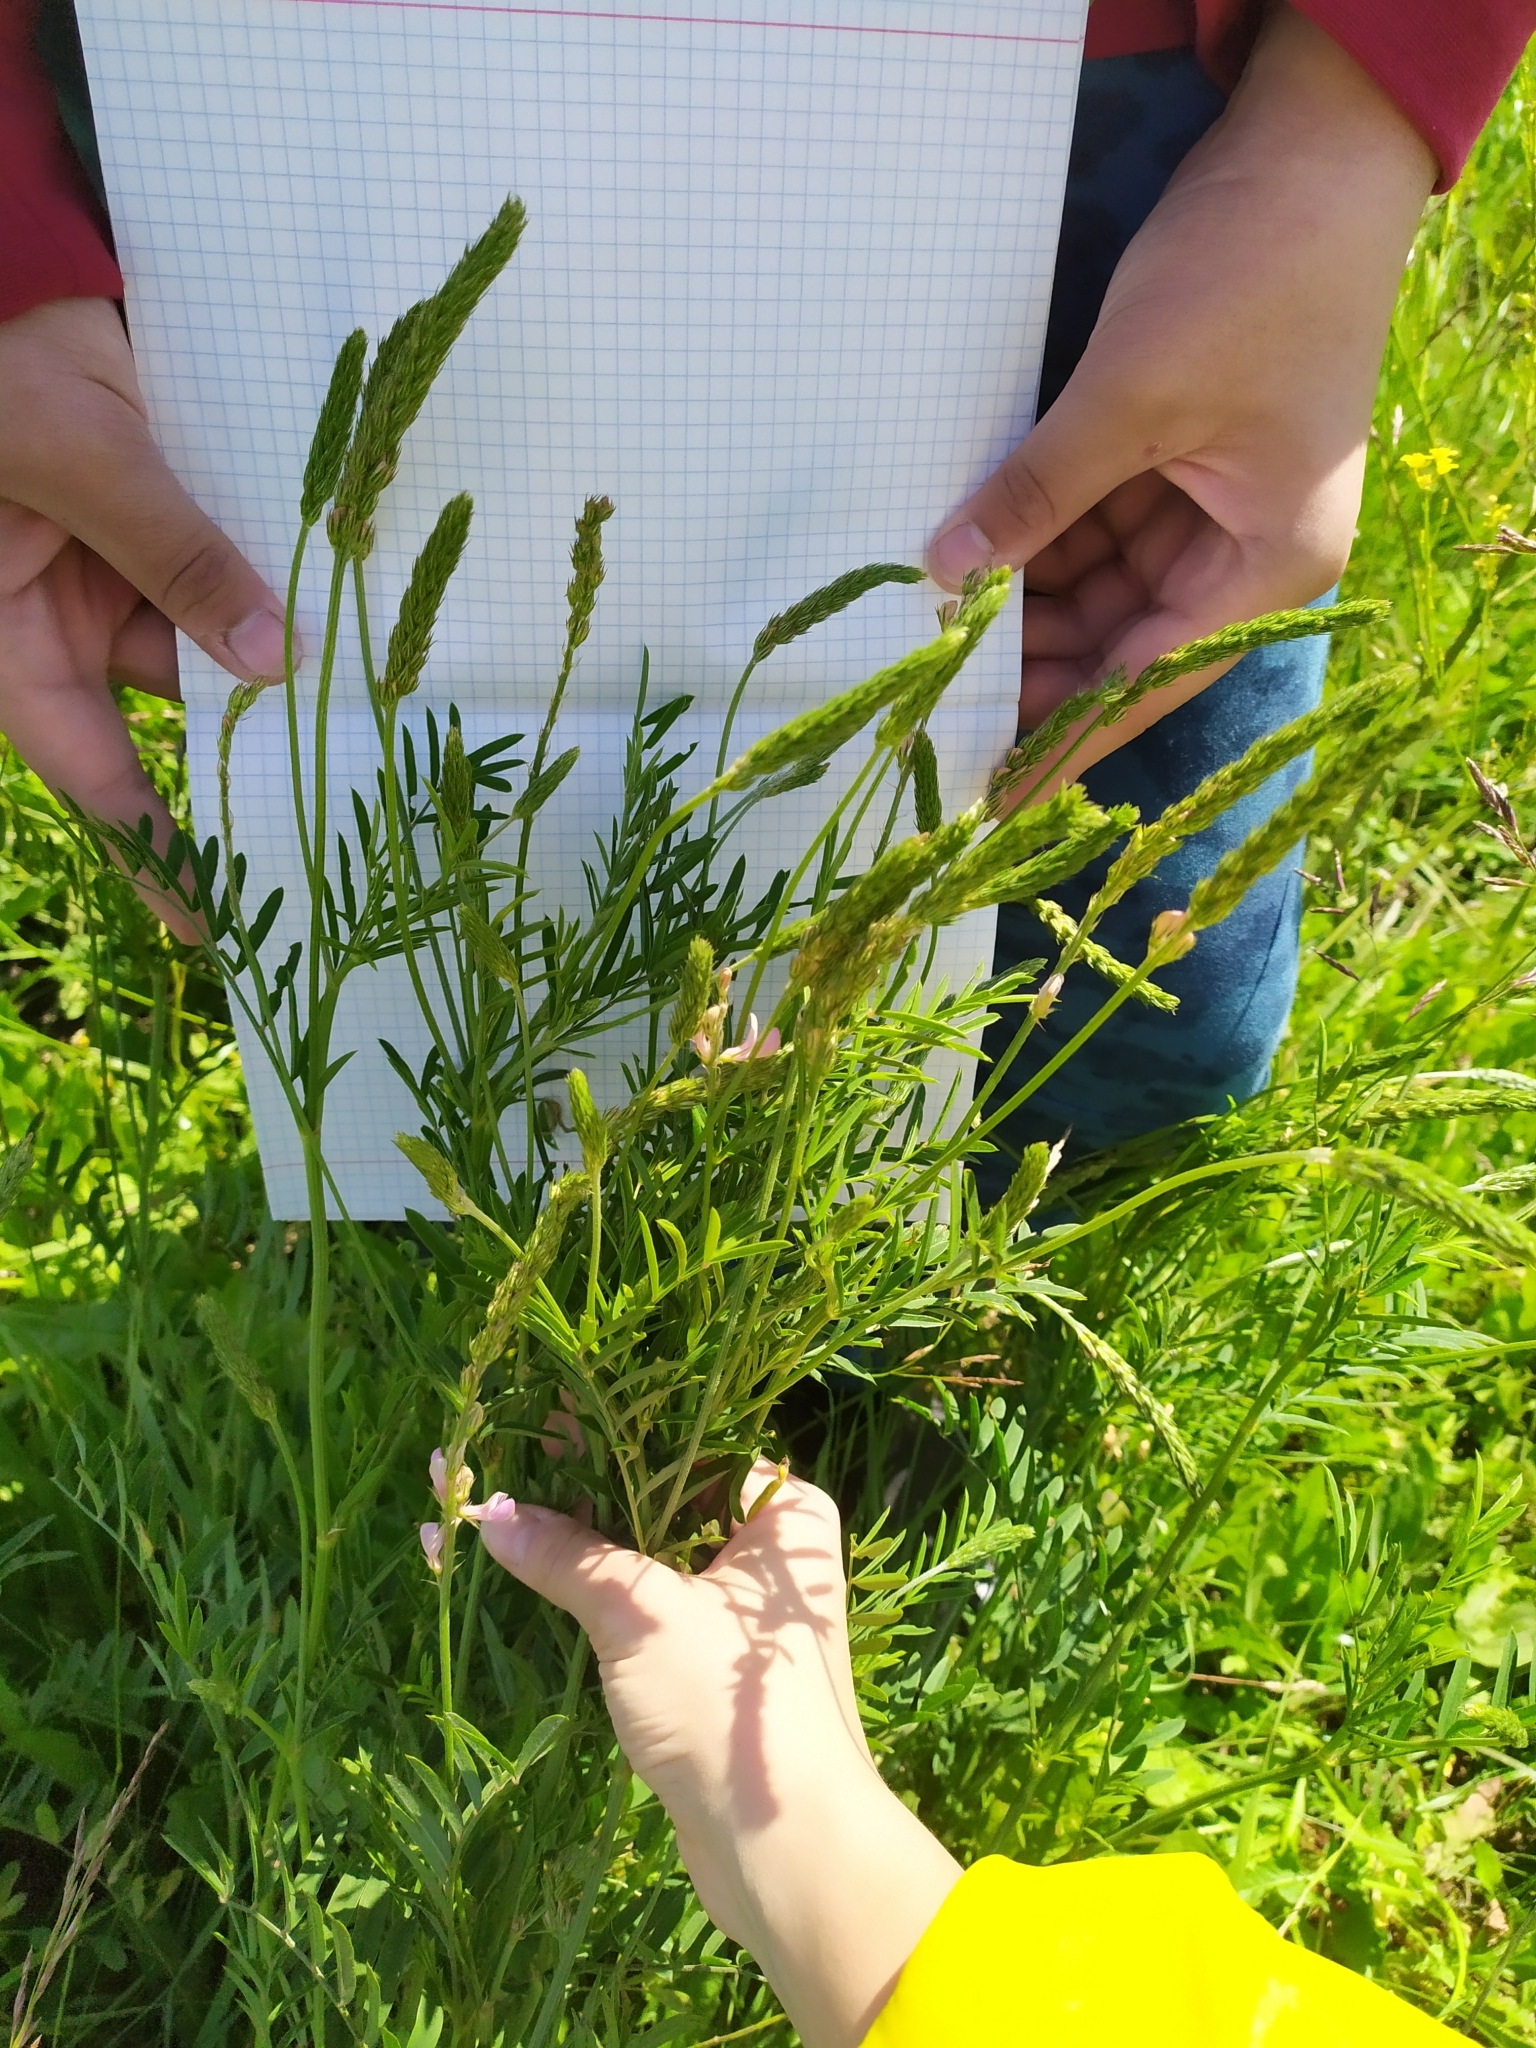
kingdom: Plantae
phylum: Tracheophyta
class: Magnoliopsida
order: Fabales
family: Fabaceae
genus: Onobrychis
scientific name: Onobrychis arenaria
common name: Sand esparcet
